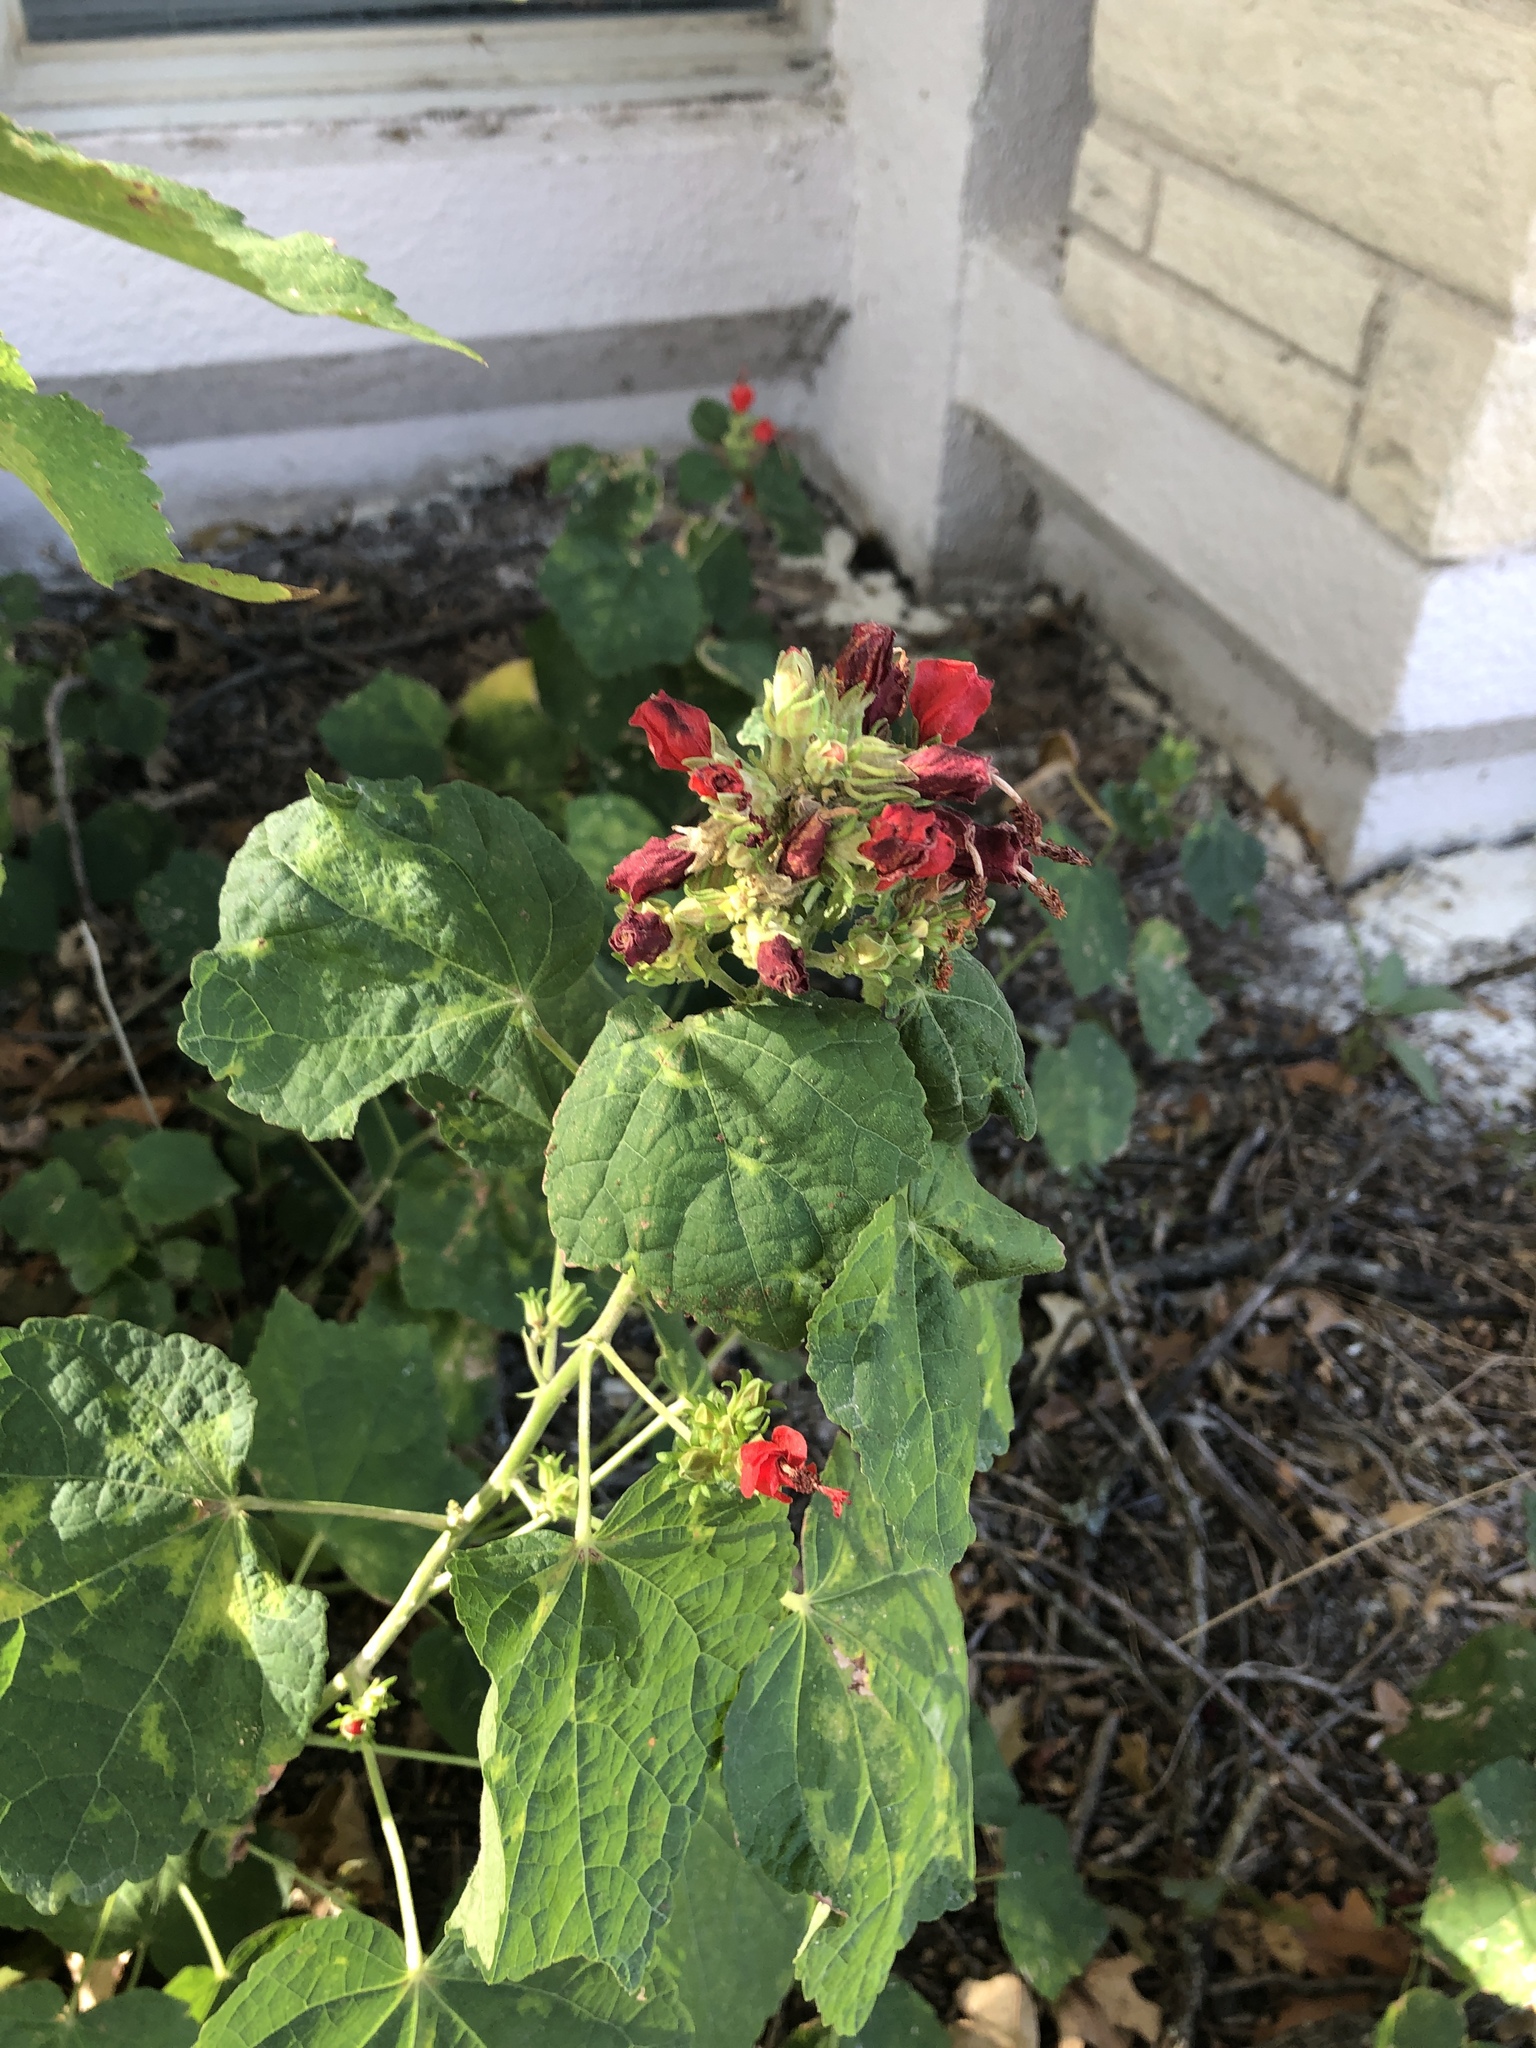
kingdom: Plantae
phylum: Tracheophyta
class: Magnoliopsida
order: Malvales
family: Malvaceae
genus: Malvaviscus
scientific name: Malvaviscus arboreus
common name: Wax mallow
